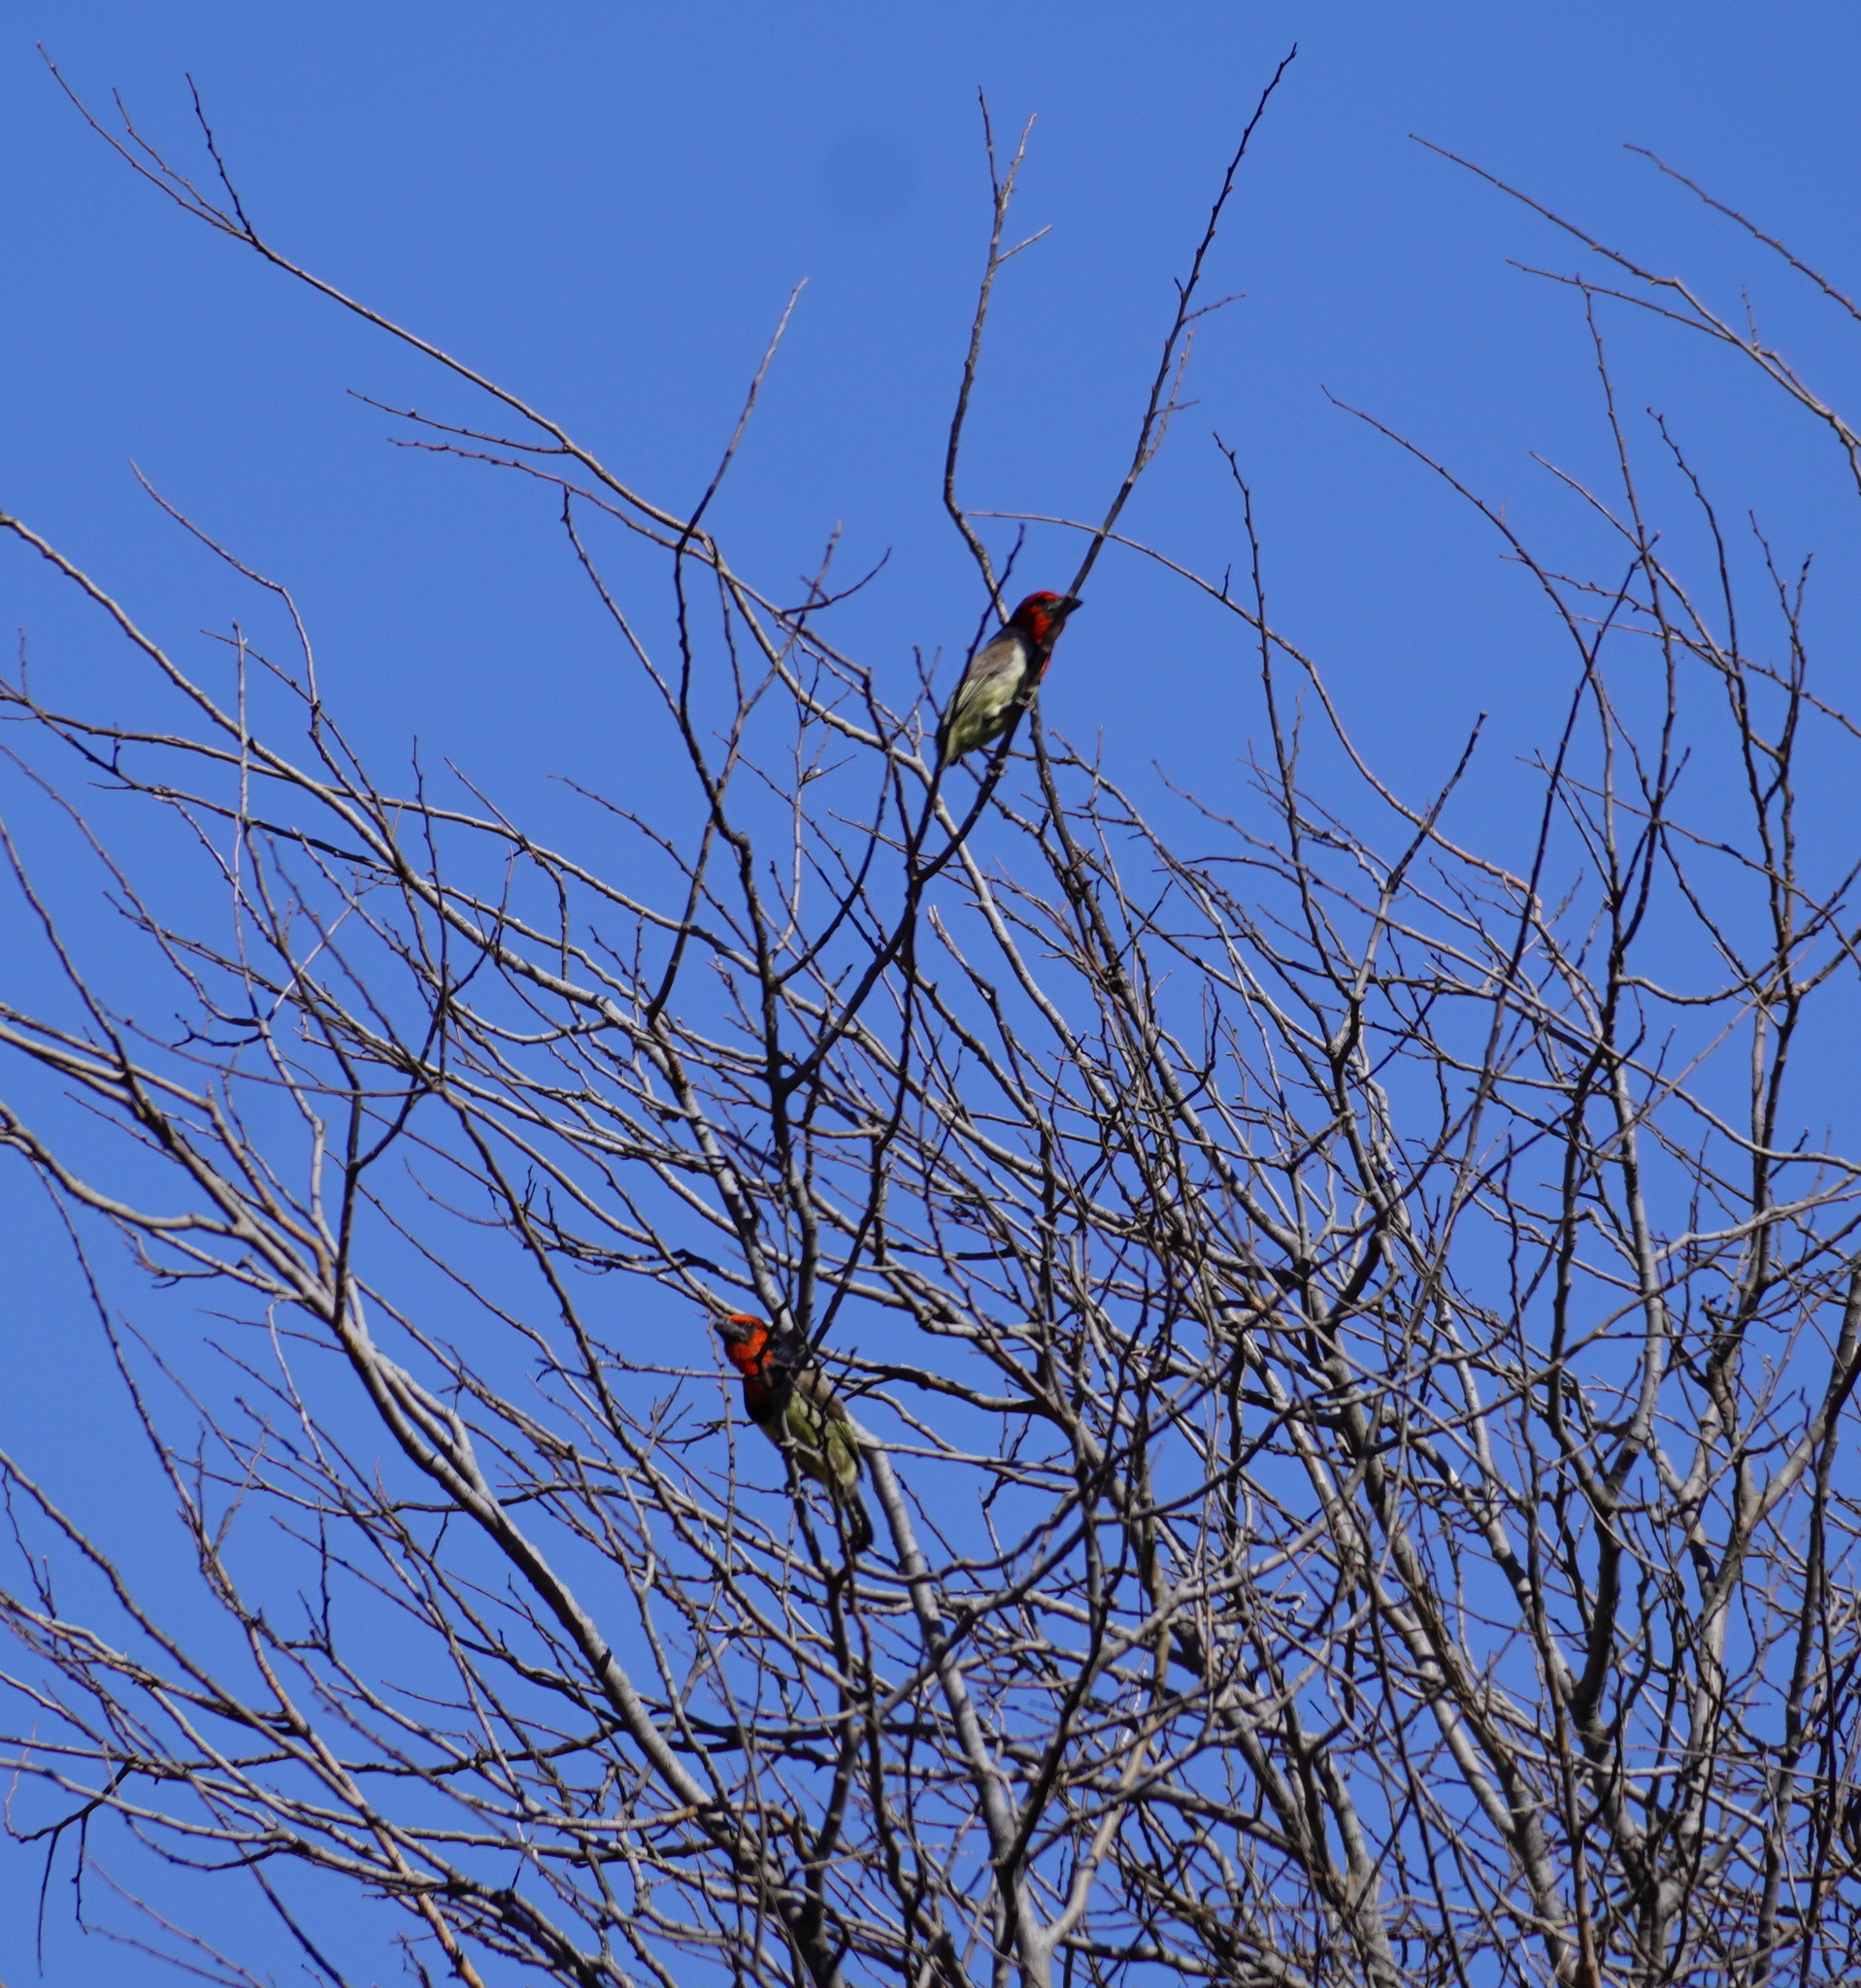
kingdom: Animalia
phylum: Chordata
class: Aves
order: Piciformes
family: Lybiidae
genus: Lybius
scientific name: Lybius torquatus
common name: Black-collared barbet
